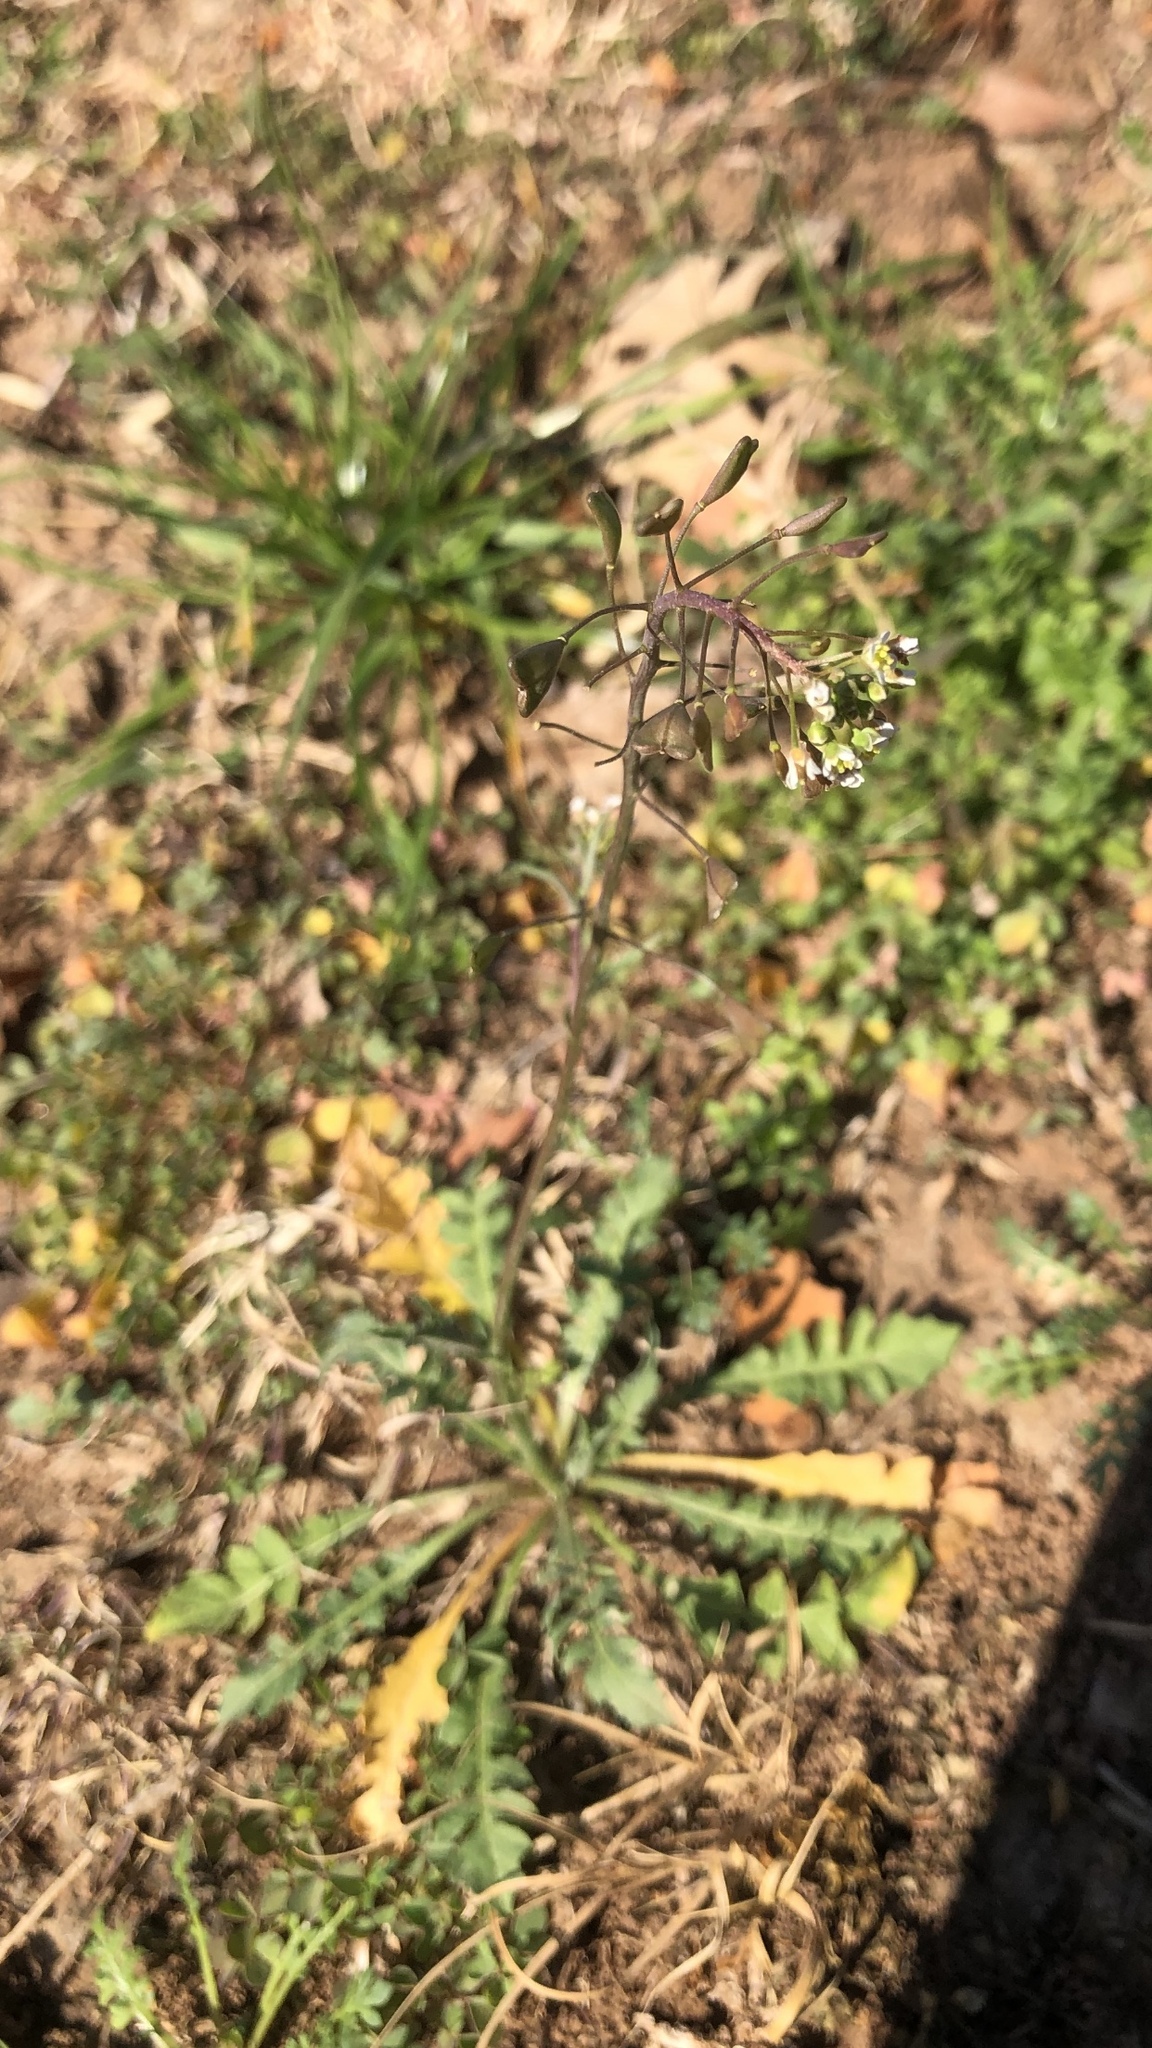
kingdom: Plantae
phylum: Tracheophyta
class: Magnoliopsida
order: Brassicales
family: Brassicaceae
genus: Capsella
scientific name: Capsella bursa-pastoris
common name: Shepherd's purse
